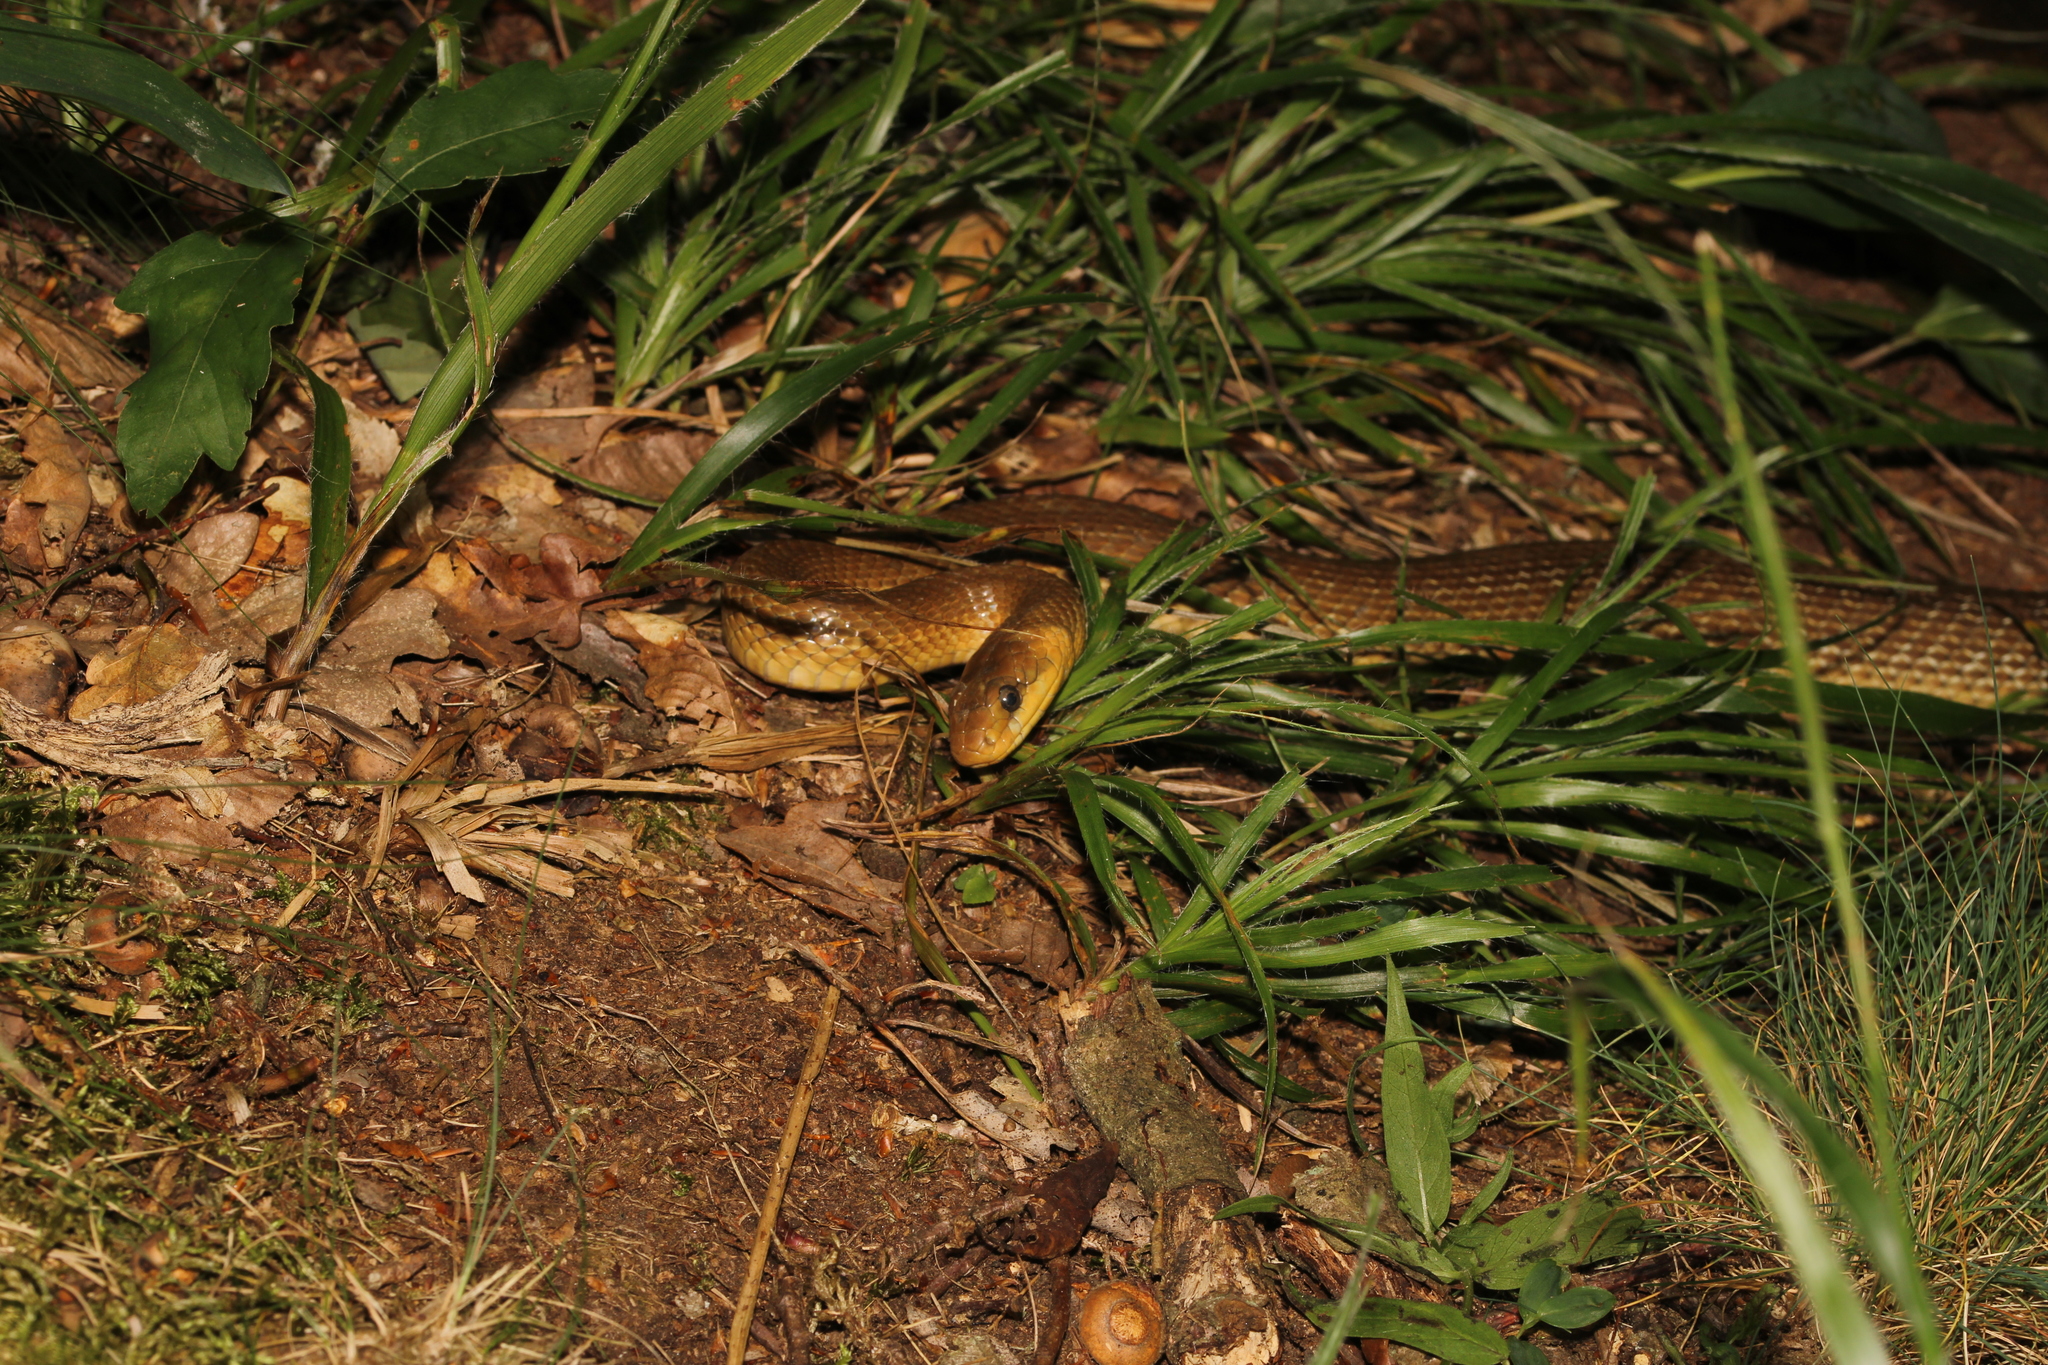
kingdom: Animalia
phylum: Chordata
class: Squamata
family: Colubridae
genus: Zamenis
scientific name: Zamenis longissimus
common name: Aesculapean snake
